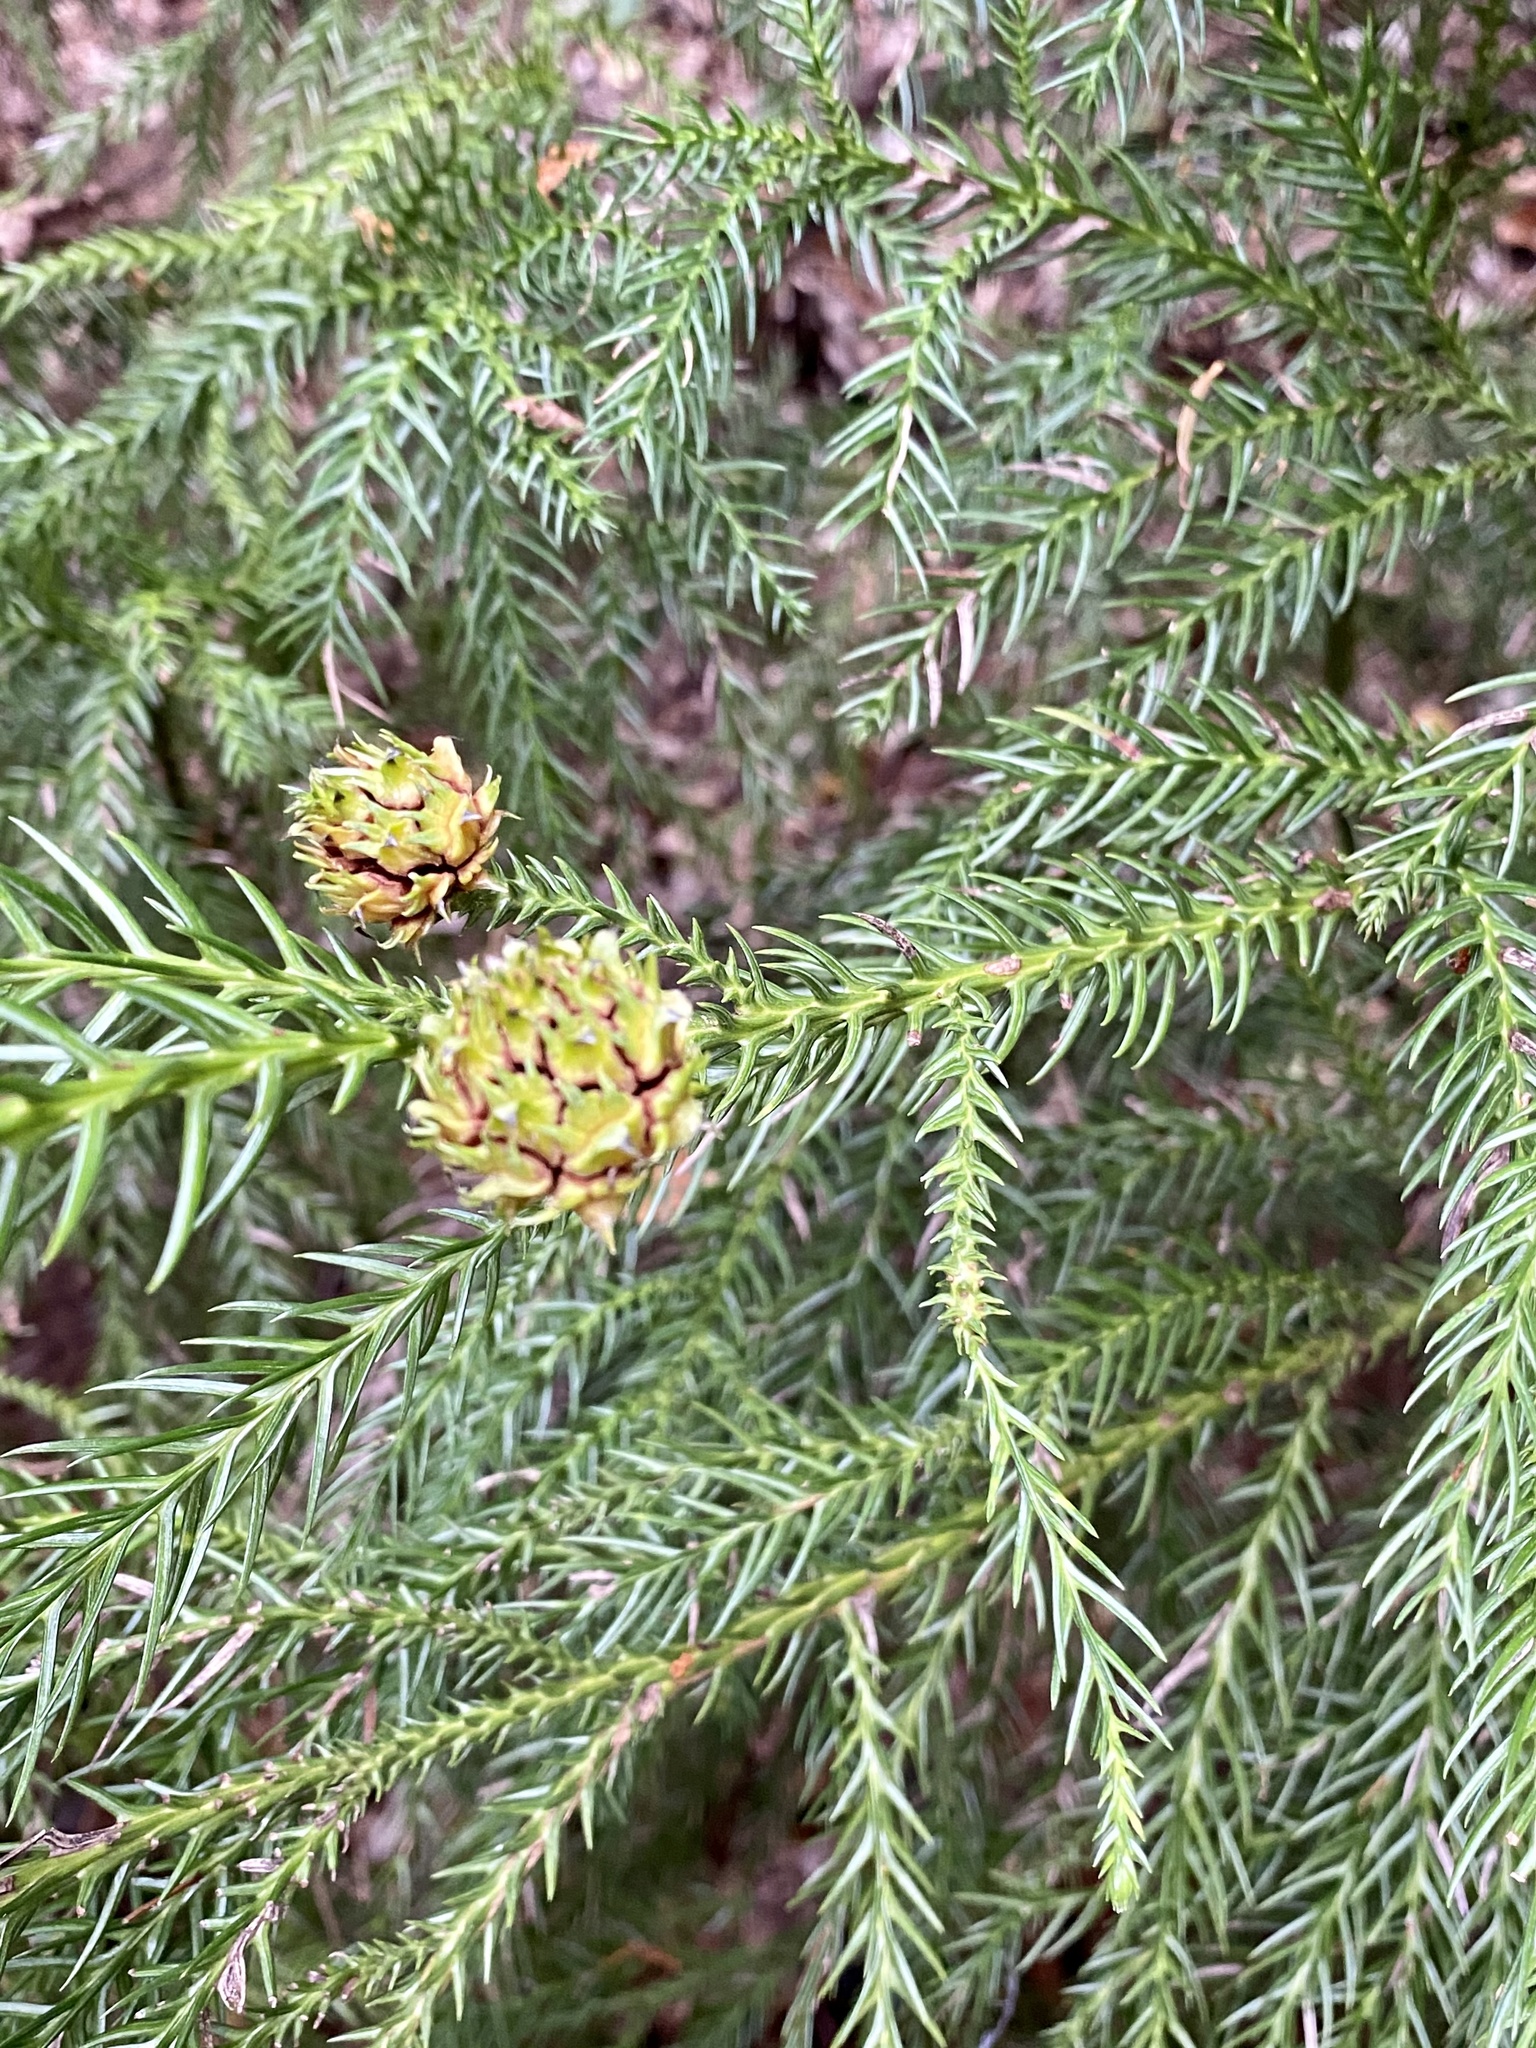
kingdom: Plantae
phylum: Tracheophyta
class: Pinopsida
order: Pinales
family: Cupressaceae
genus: Cryptomeria
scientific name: Cryptomeria japonica
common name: Japanese cedar
